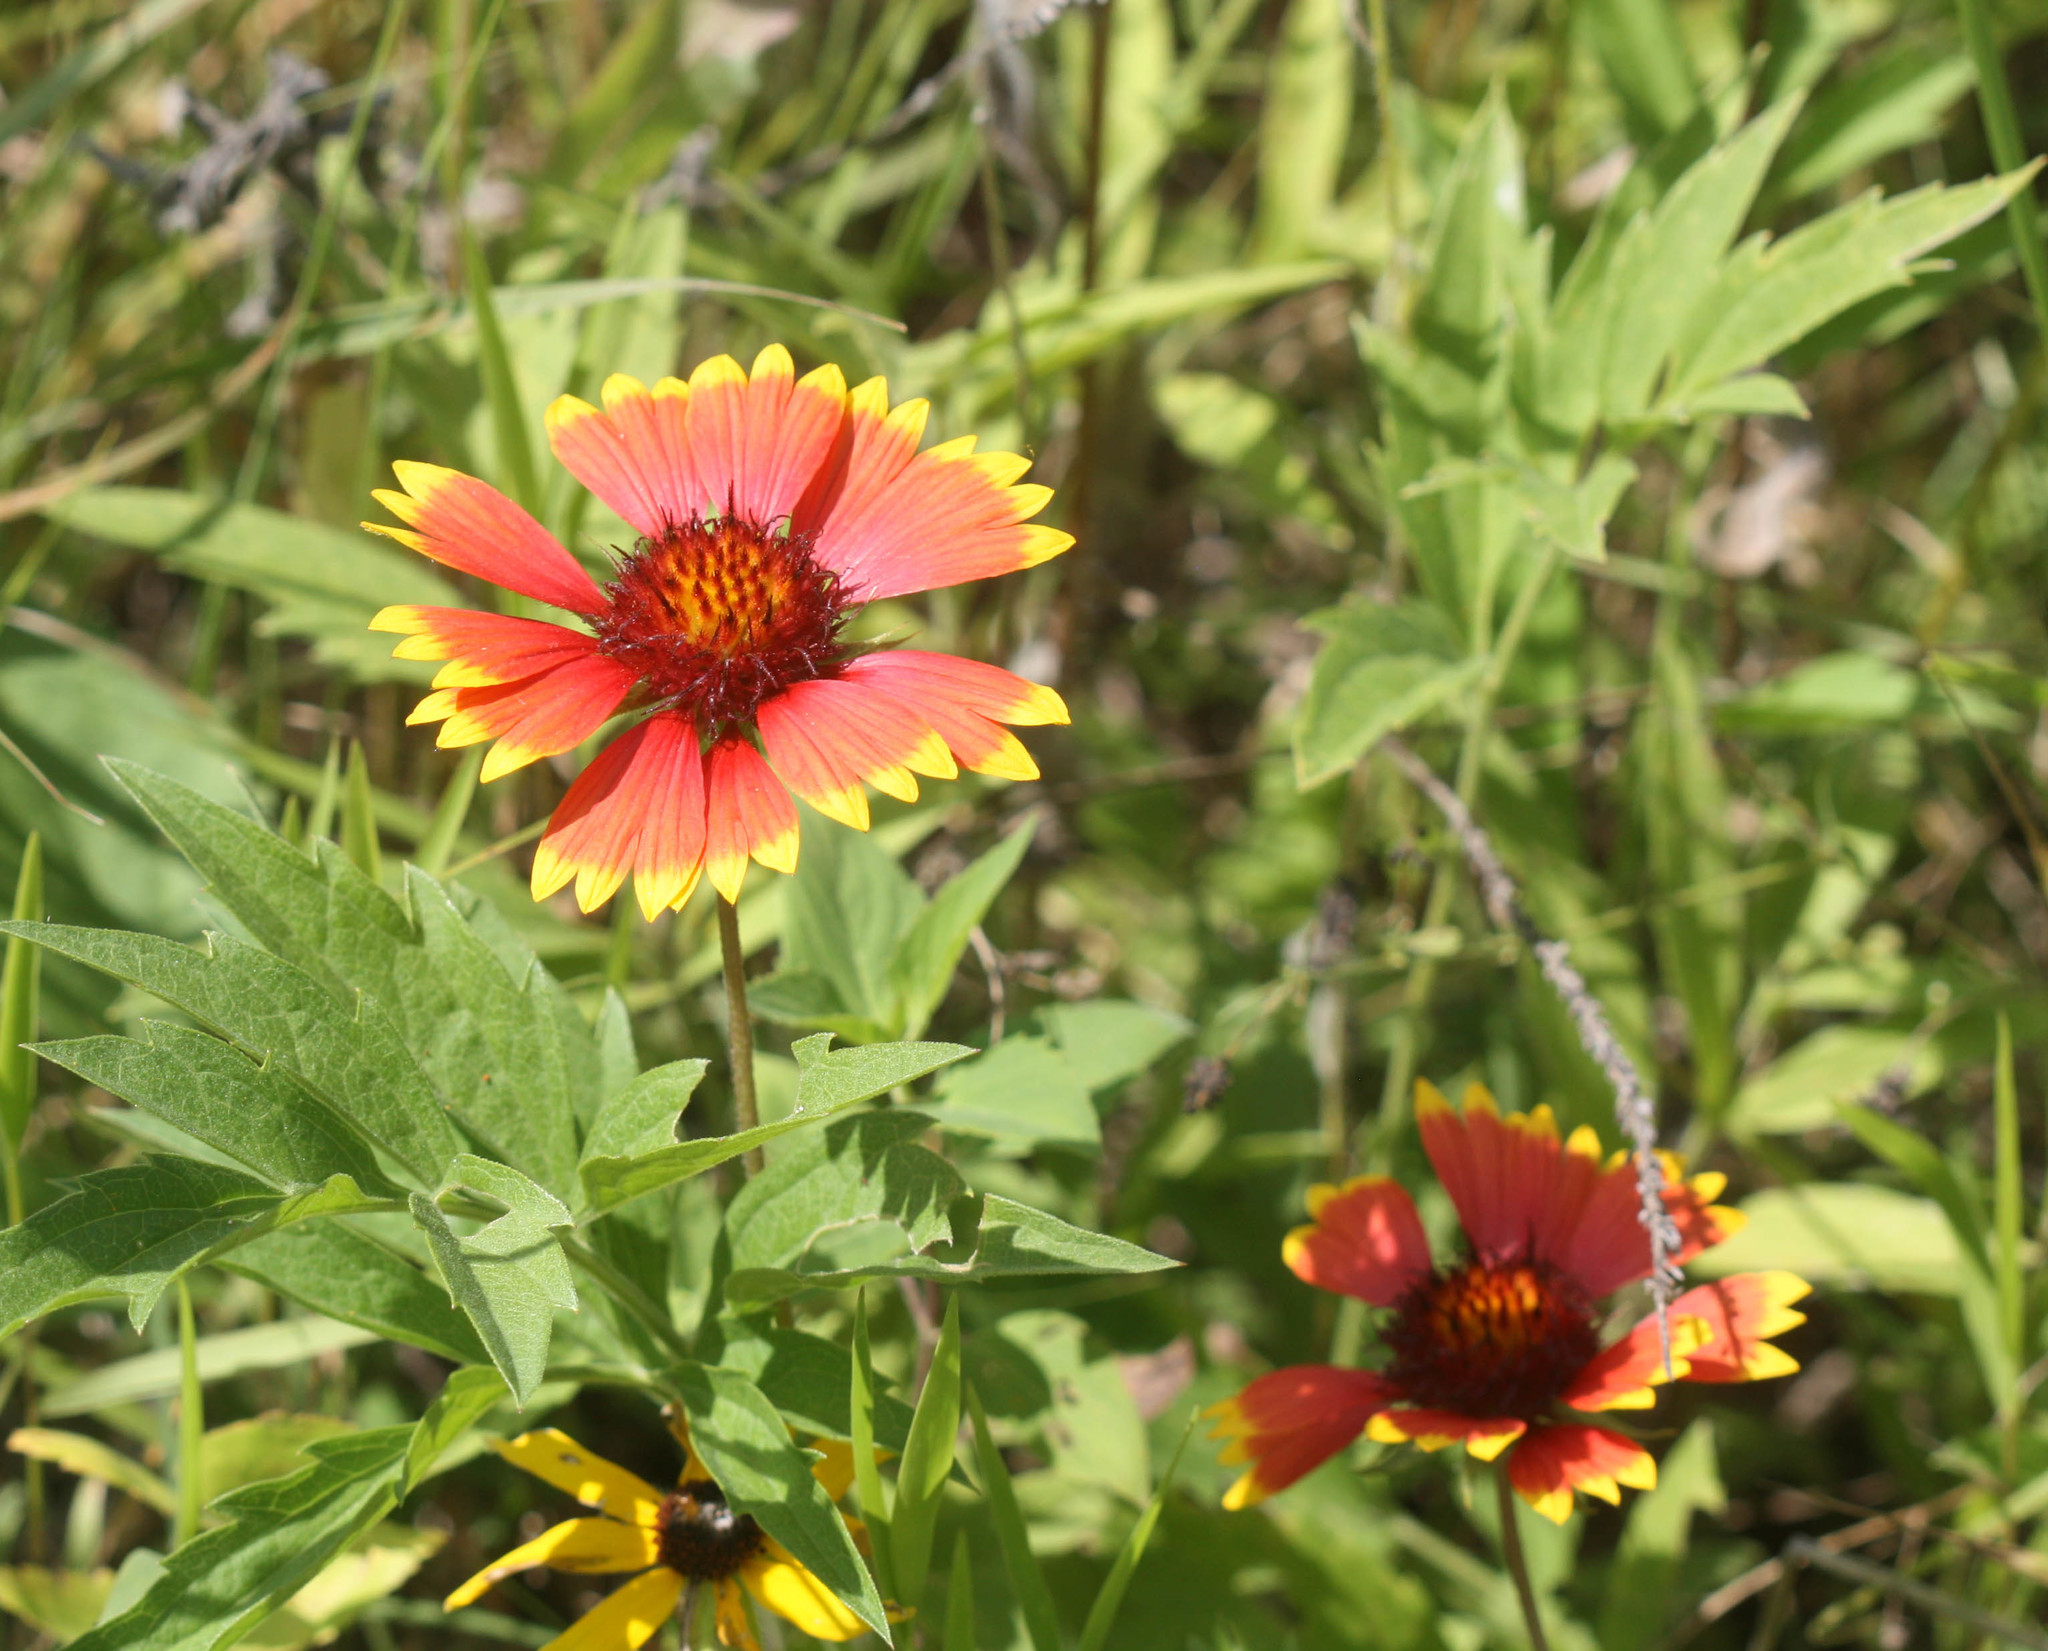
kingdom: Plantae
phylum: Tracheophyta
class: Magnoliopsida
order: Asterales
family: Asteraceae
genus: Gaillardia
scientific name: Gaillardia pulchella
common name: Firewheel
